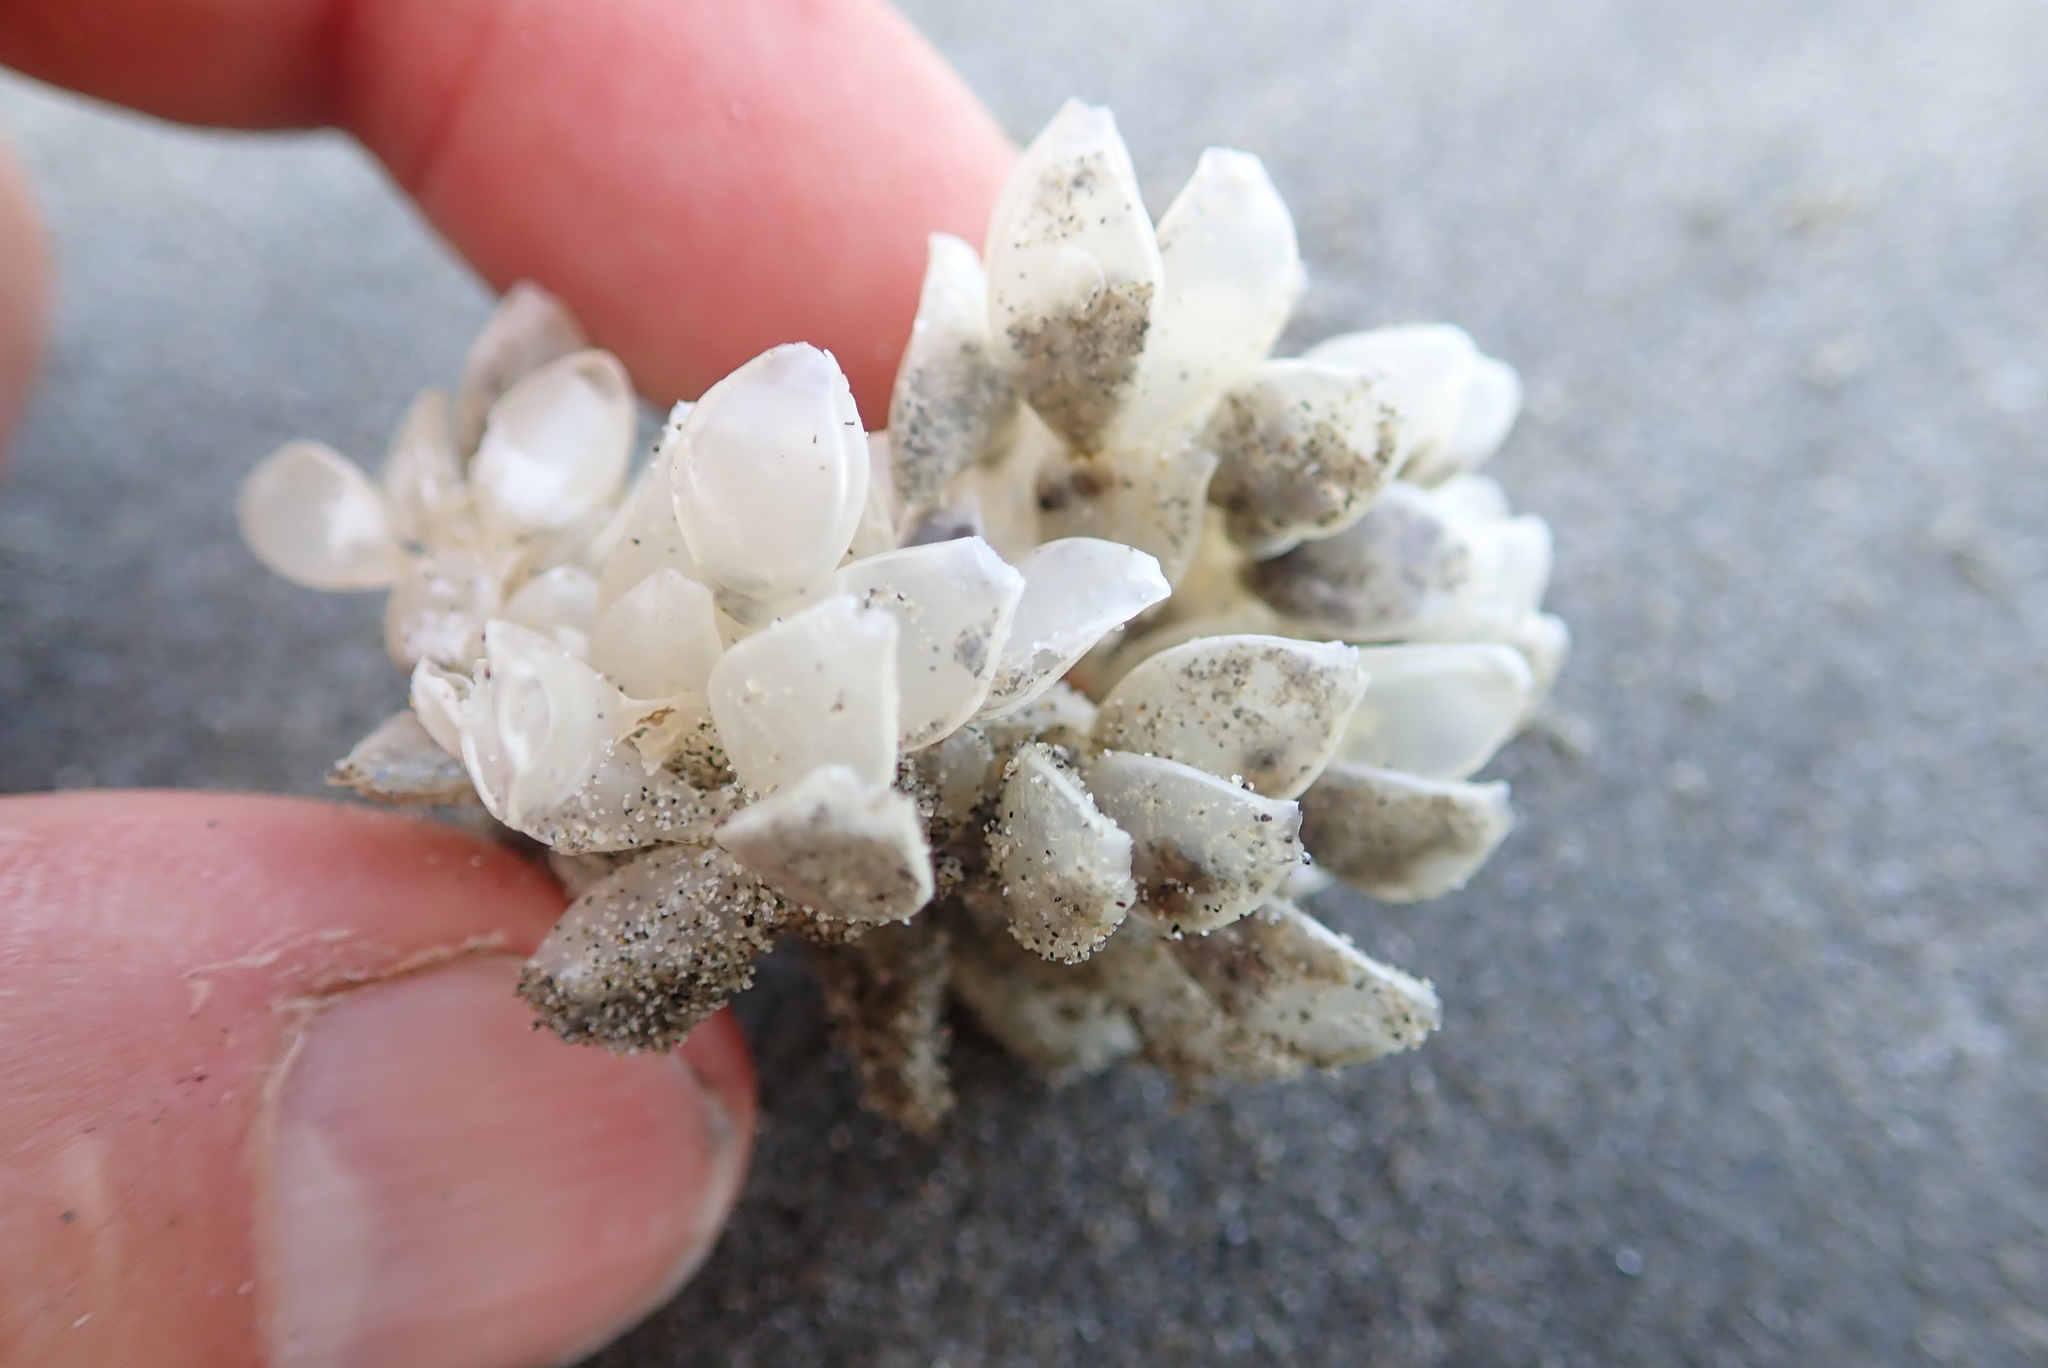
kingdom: Animalia
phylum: Mollusca
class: Gastropoda
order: Neogastropoda
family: Cominellidae
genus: Cominella
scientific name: Cominella adspersa
